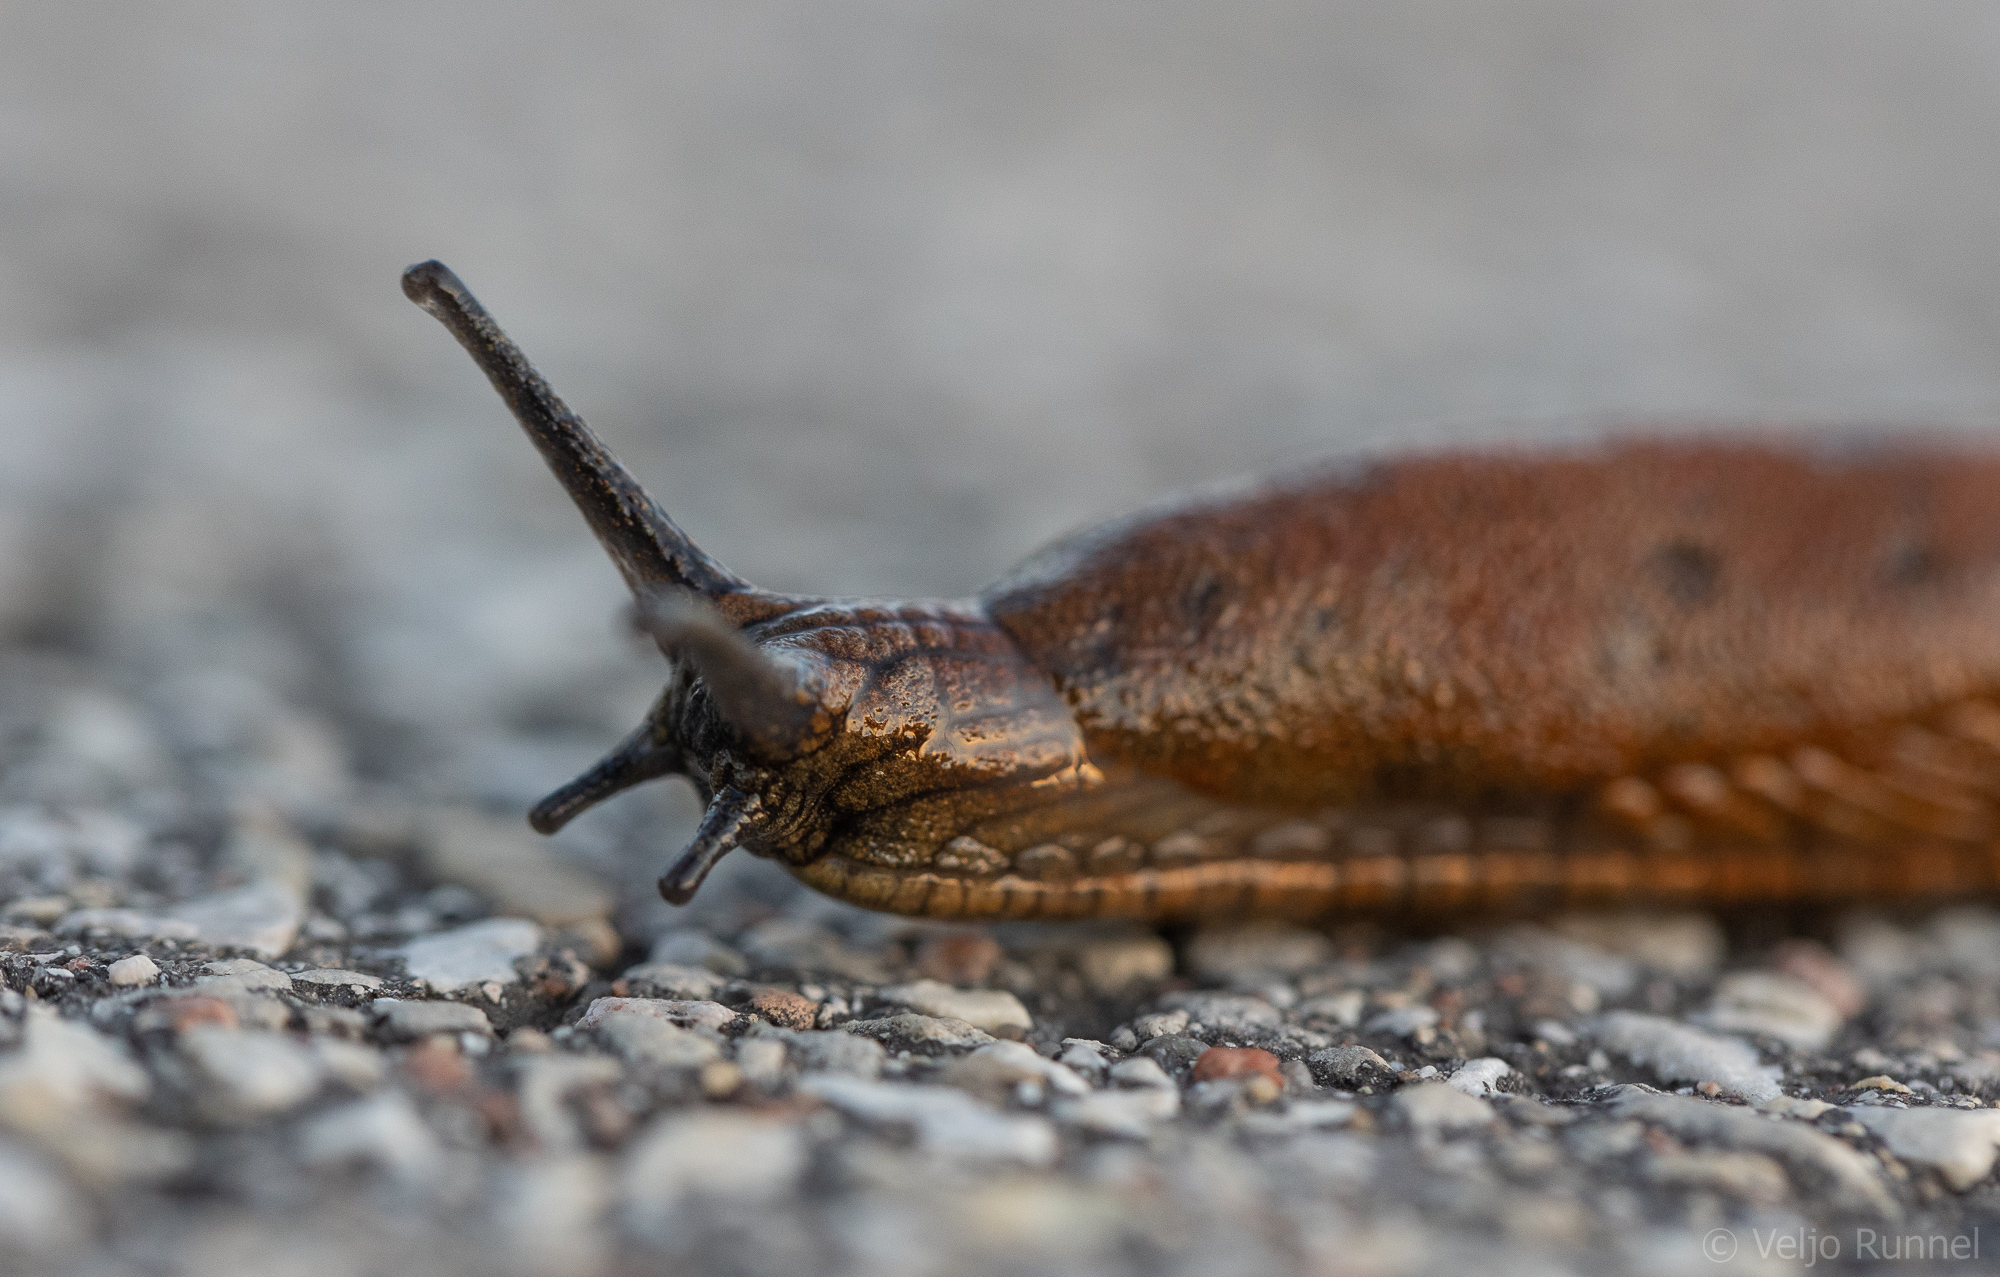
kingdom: Animalia
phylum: Mollusca
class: Gastropoda
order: Stylommatophora
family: Arionidae
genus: Arion
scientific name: Arion vulgaris
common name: Lusitanian slug
